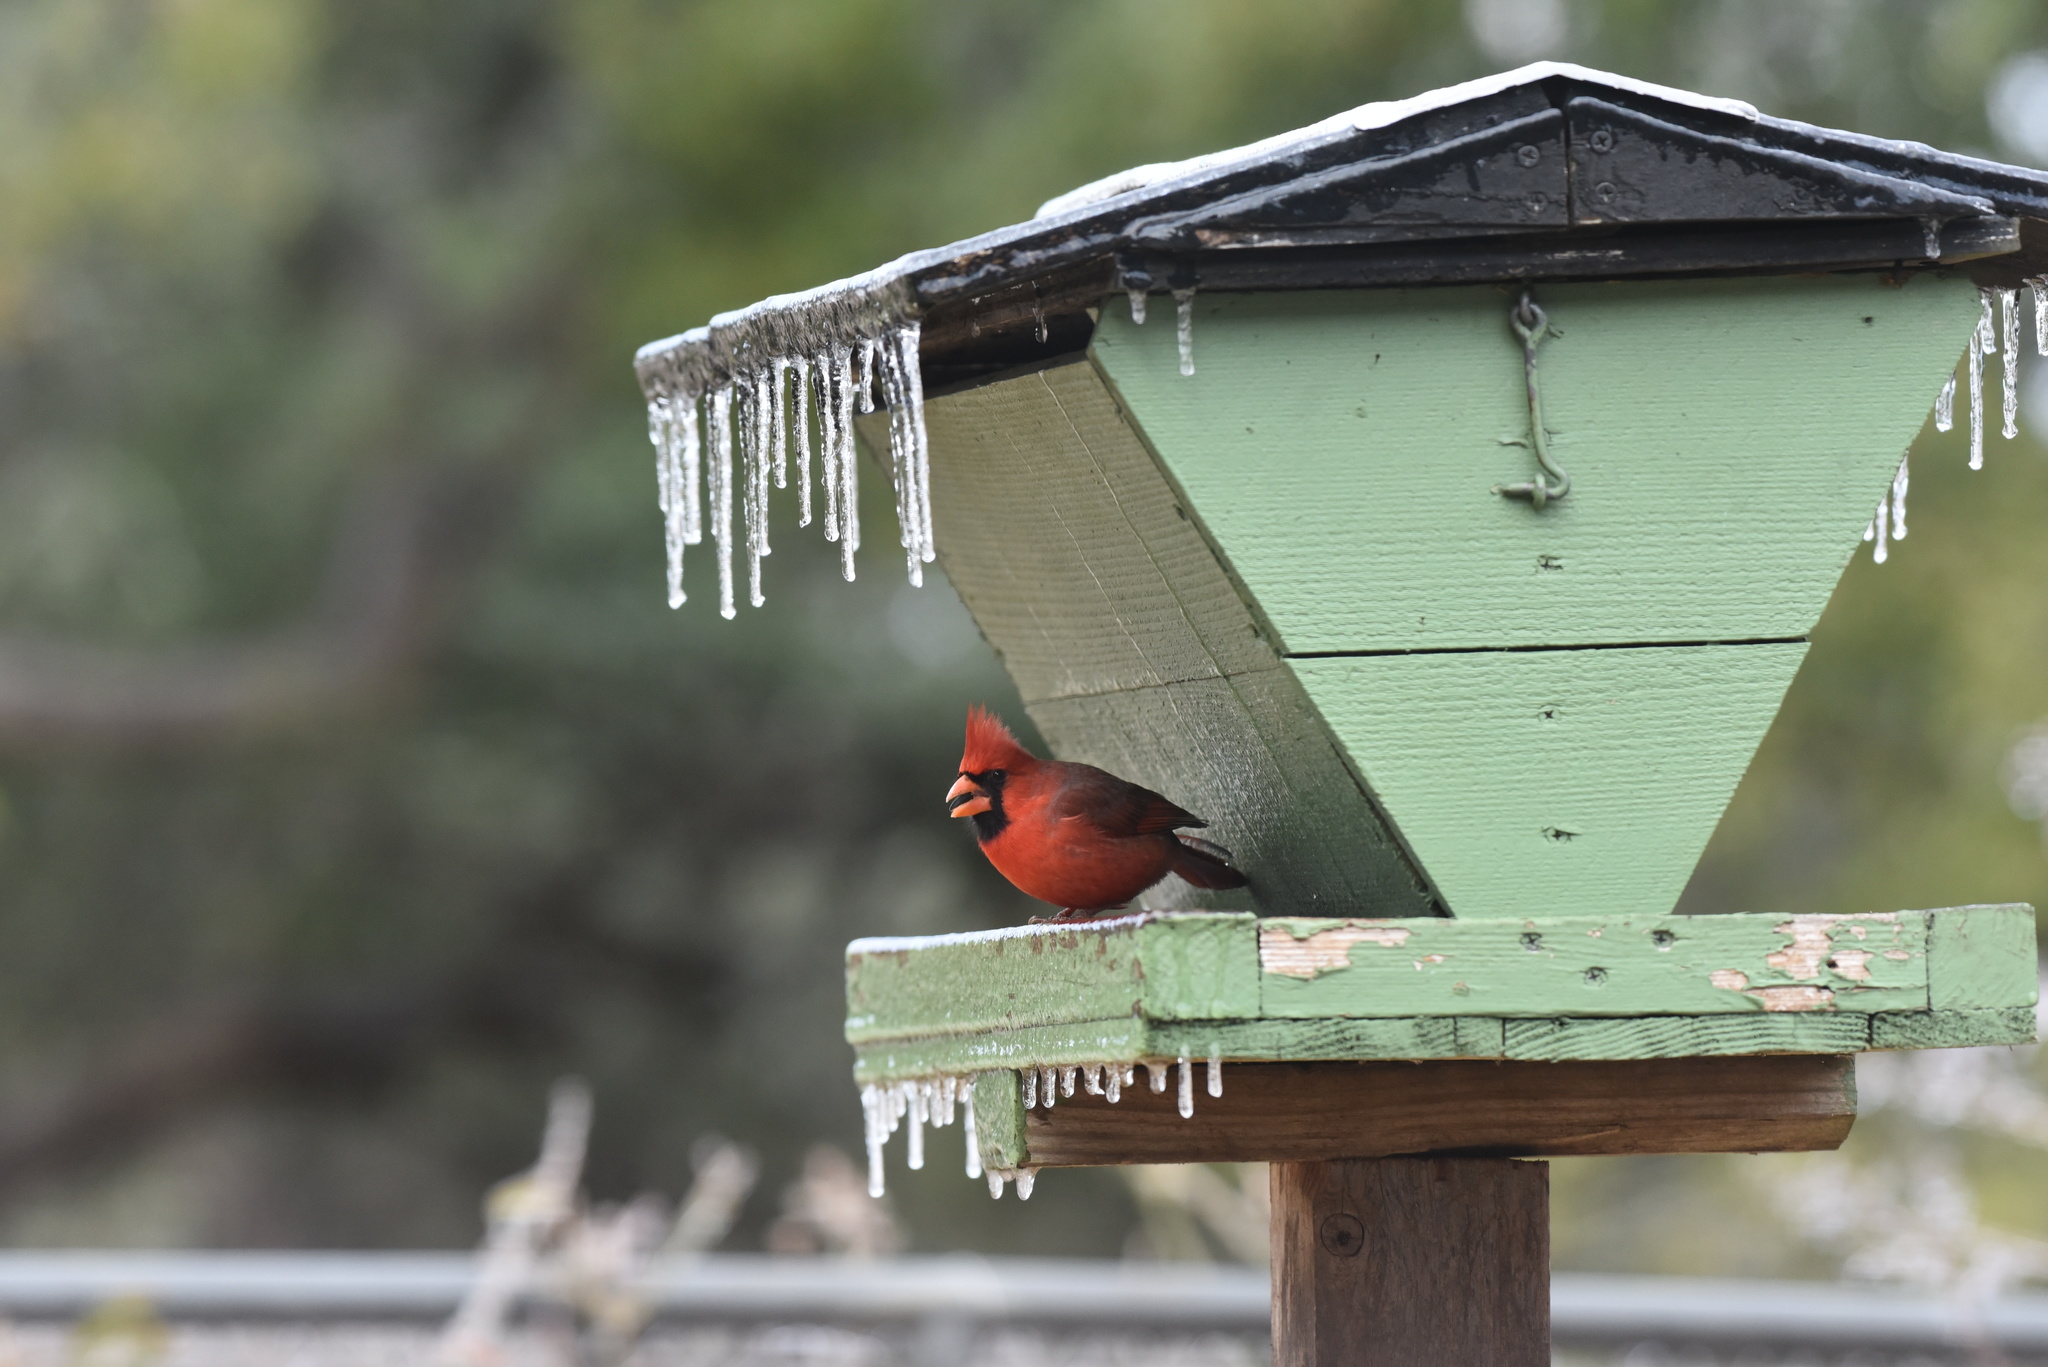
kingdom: Animalia
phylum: Chordata
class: Aves
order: Passeriformes
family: Cardinalidae
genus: Cardinalis
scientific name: Cardinalis cardinalis
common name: Northern cardinal
